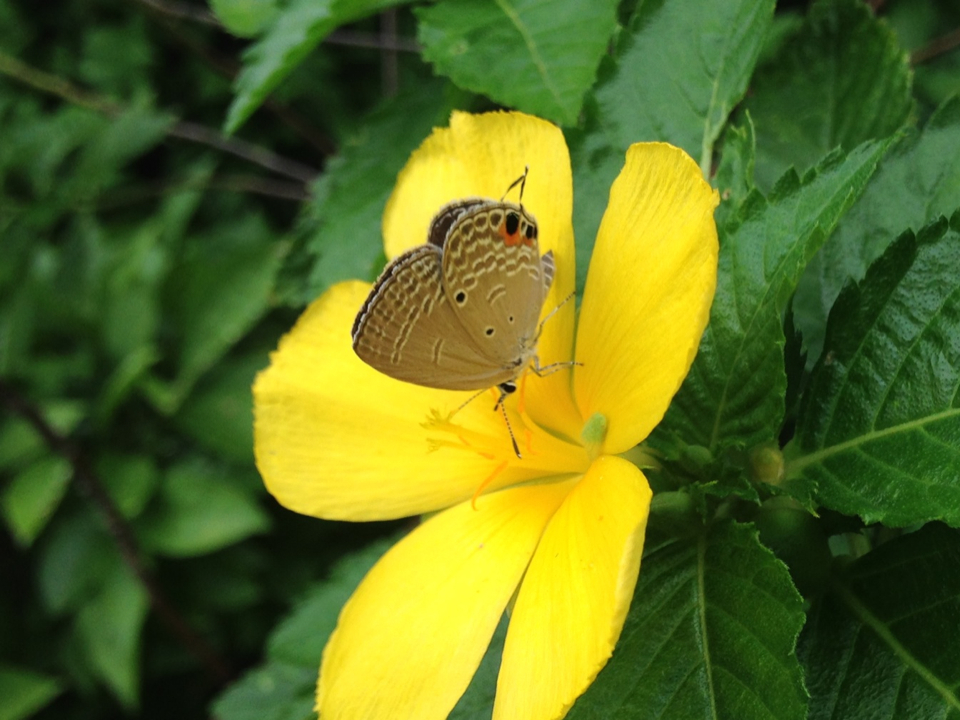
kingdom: Animalia
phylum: Arthropoda
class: Insecta
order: Lepidoptera
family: Lycaenidae
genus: Luthrodes
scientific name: Luthrodes pandava
